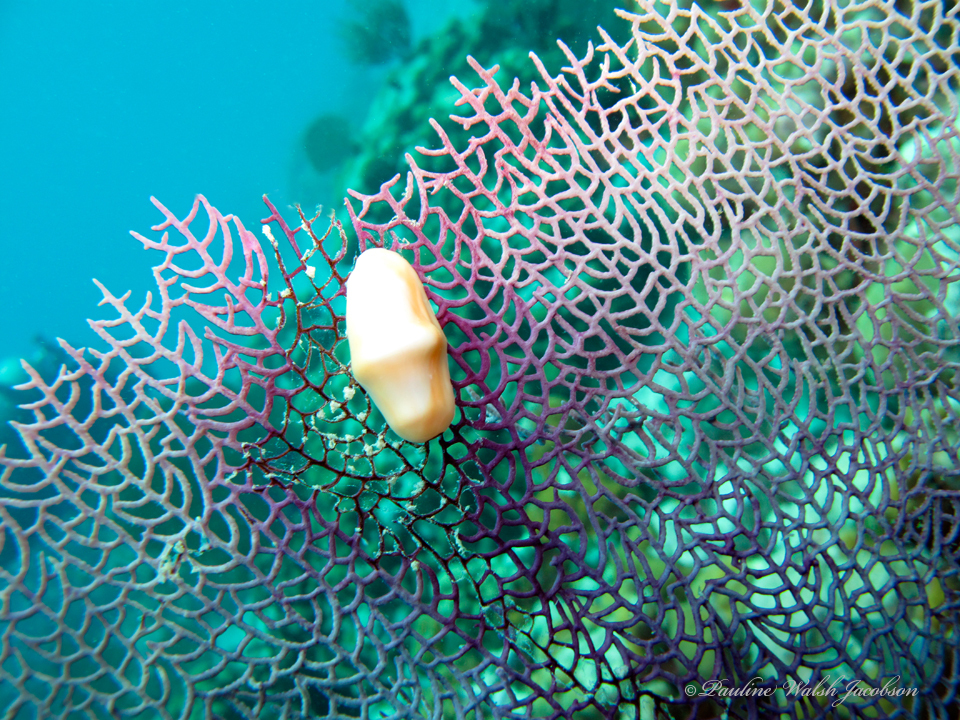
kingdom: Animalia
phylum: Mollusca
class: Gastropoda
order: Littorinimorpha
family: Ovulidae
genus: Cyphoma
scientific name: Cyphoma gibbosum
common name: Flamingo tongue
